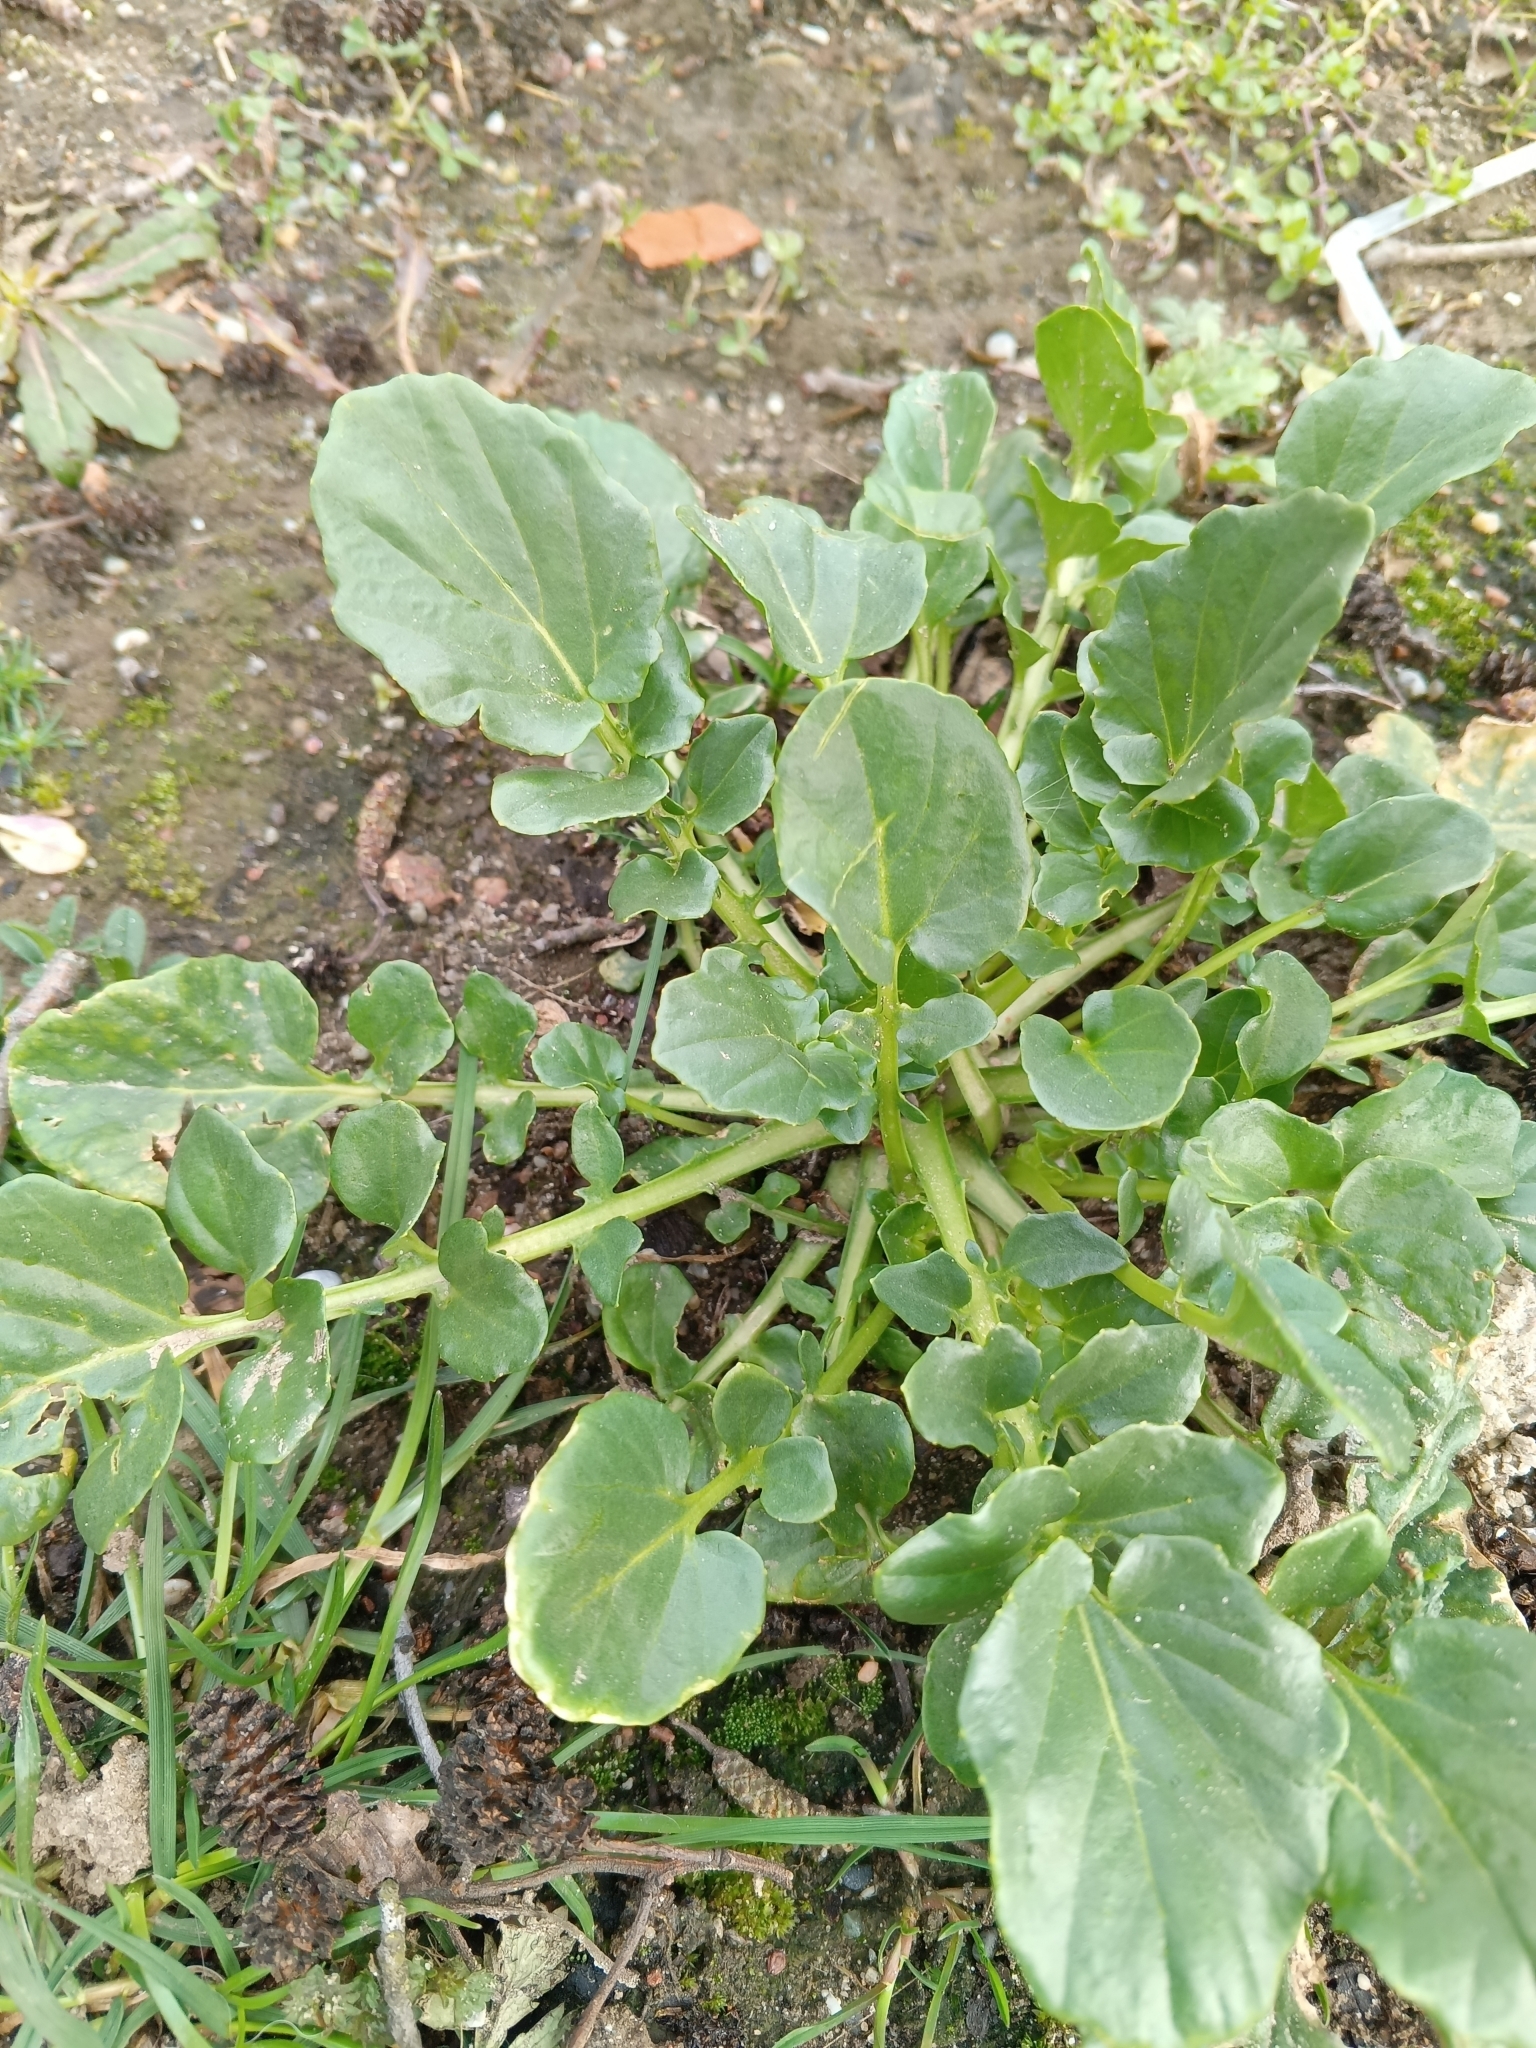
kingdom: Plantae
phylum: Tracheophyta
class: Magnoliopsida
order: Brassicales
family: Brassicaceae
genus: Barbarea
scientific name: Barbarea vulgaris
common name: Cressy-greens
